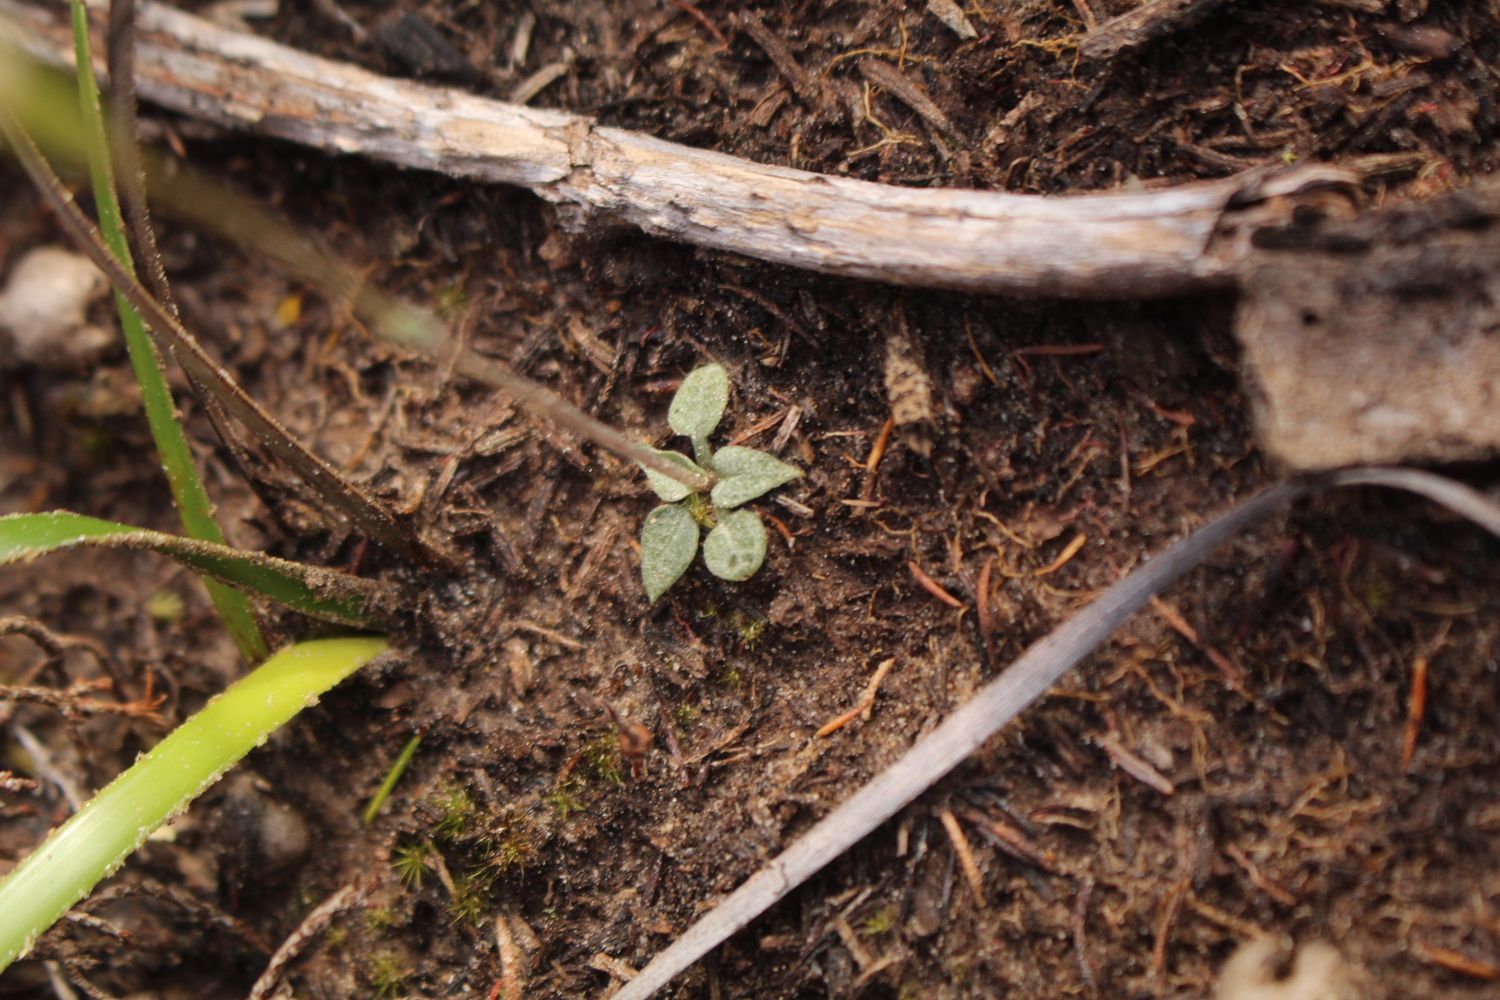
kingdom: Plantae
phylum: Tracheophyta
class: Liliopsida
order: Asparagales
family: Orchidaceae
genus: Pterostylis
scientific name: Pterostylis timothyi
